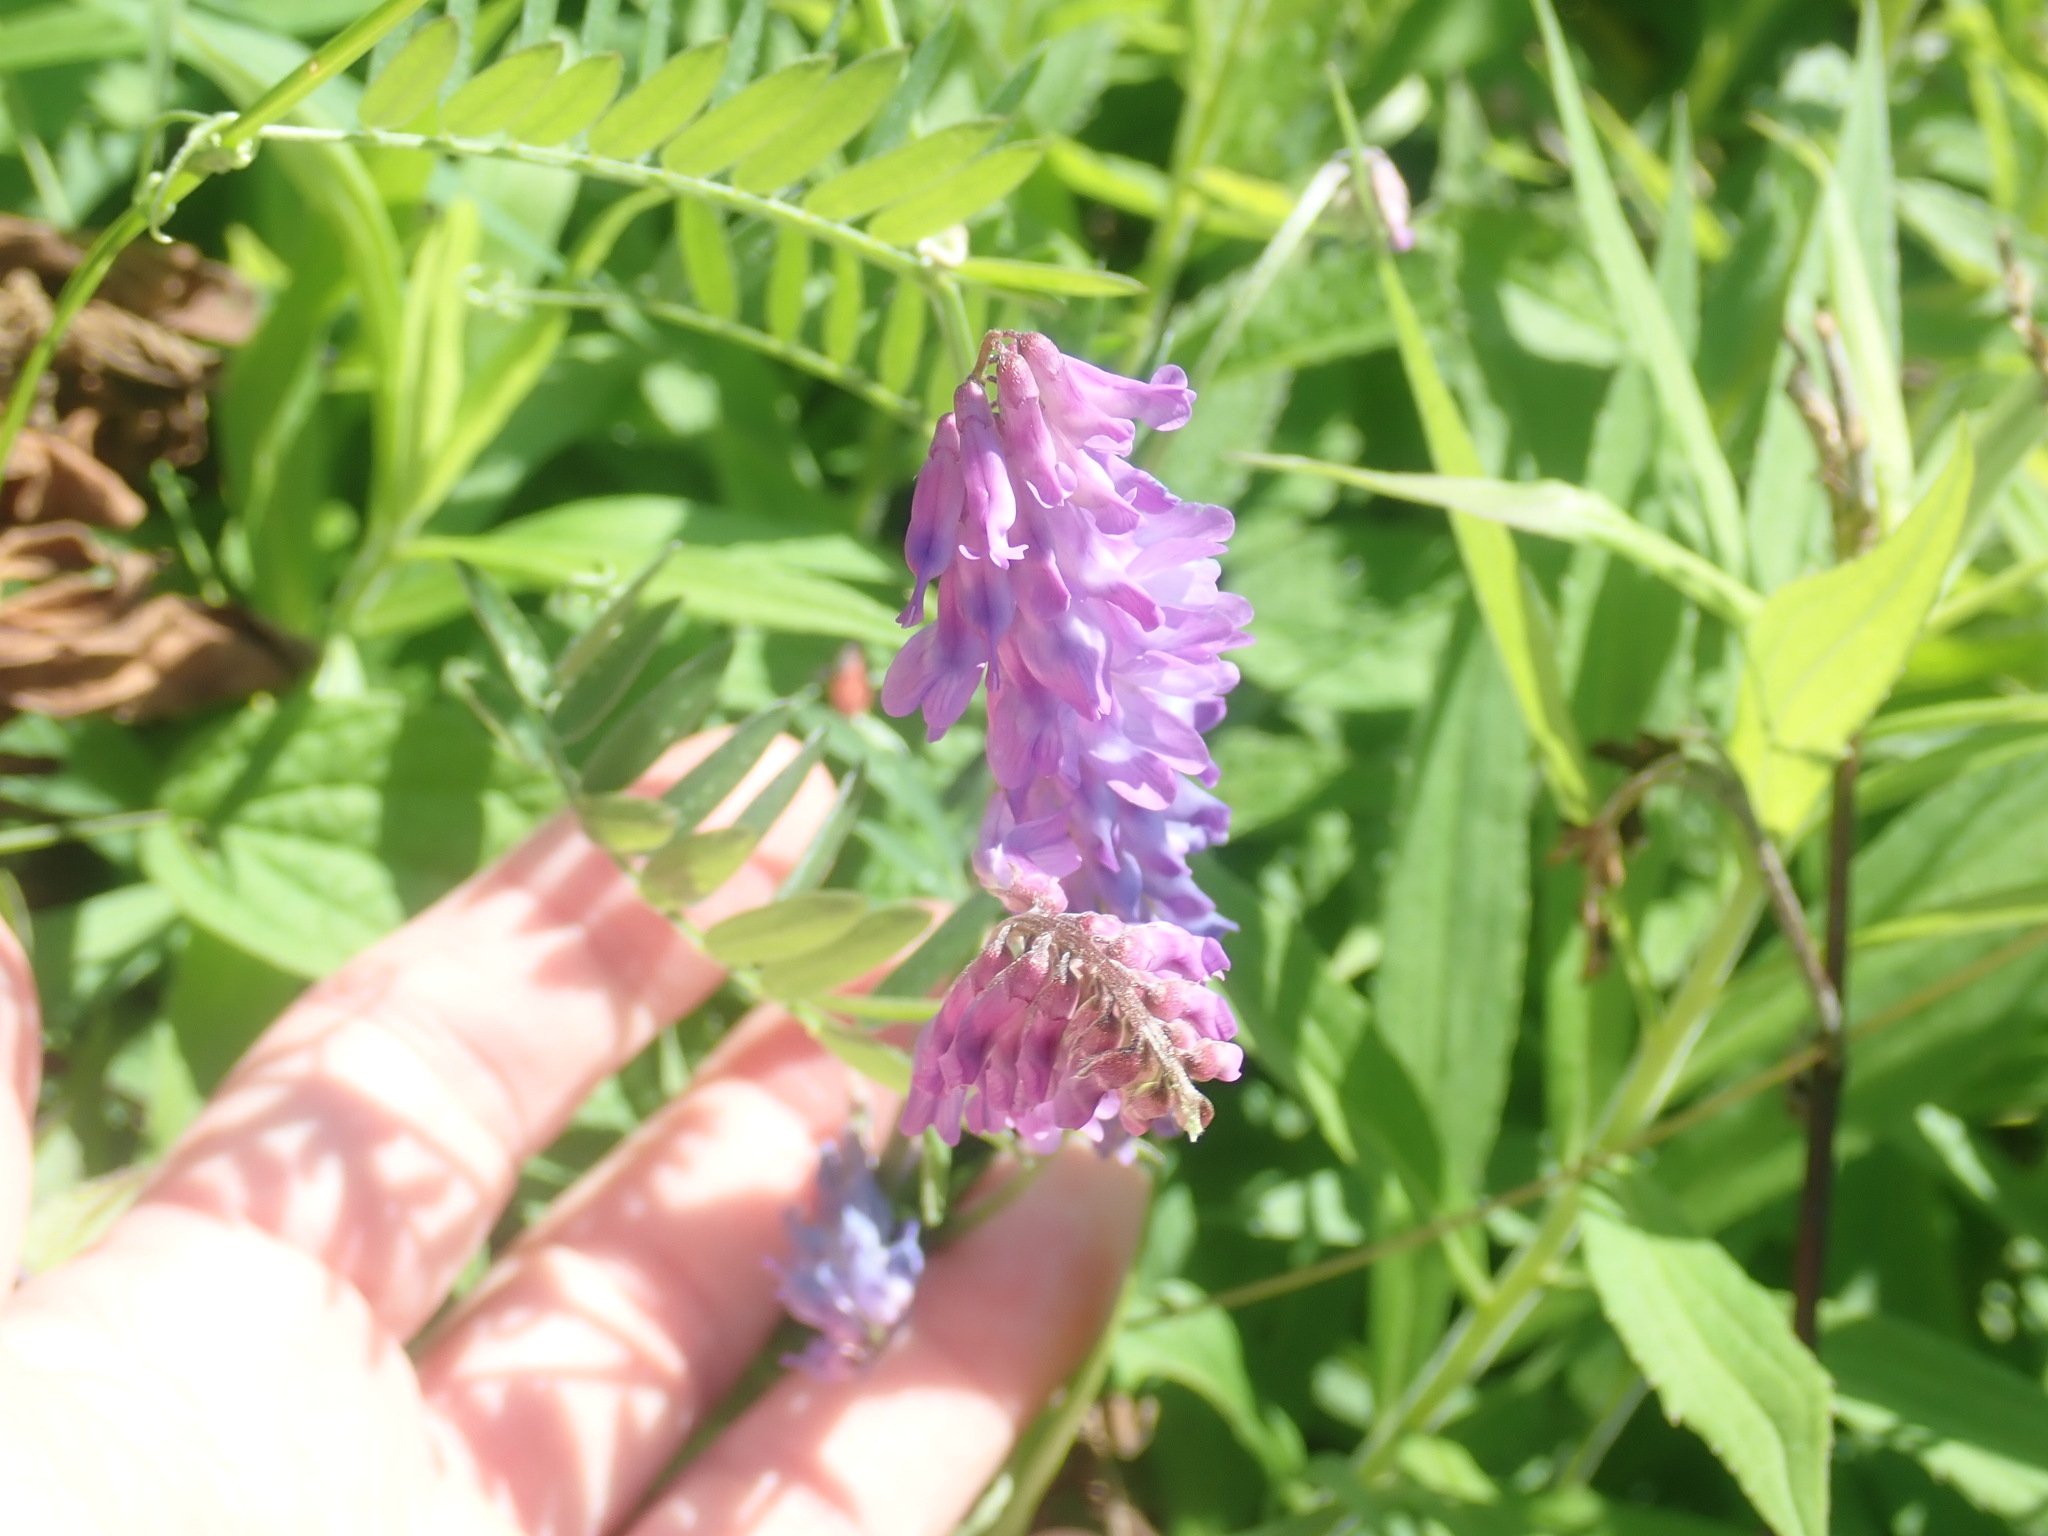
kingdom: Plantae
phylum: Tracheophyta
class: Magnoliopsida
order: Fabales
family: Fabaceae
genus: Vicia
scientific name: Vicia cracca
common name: Bird vetch
